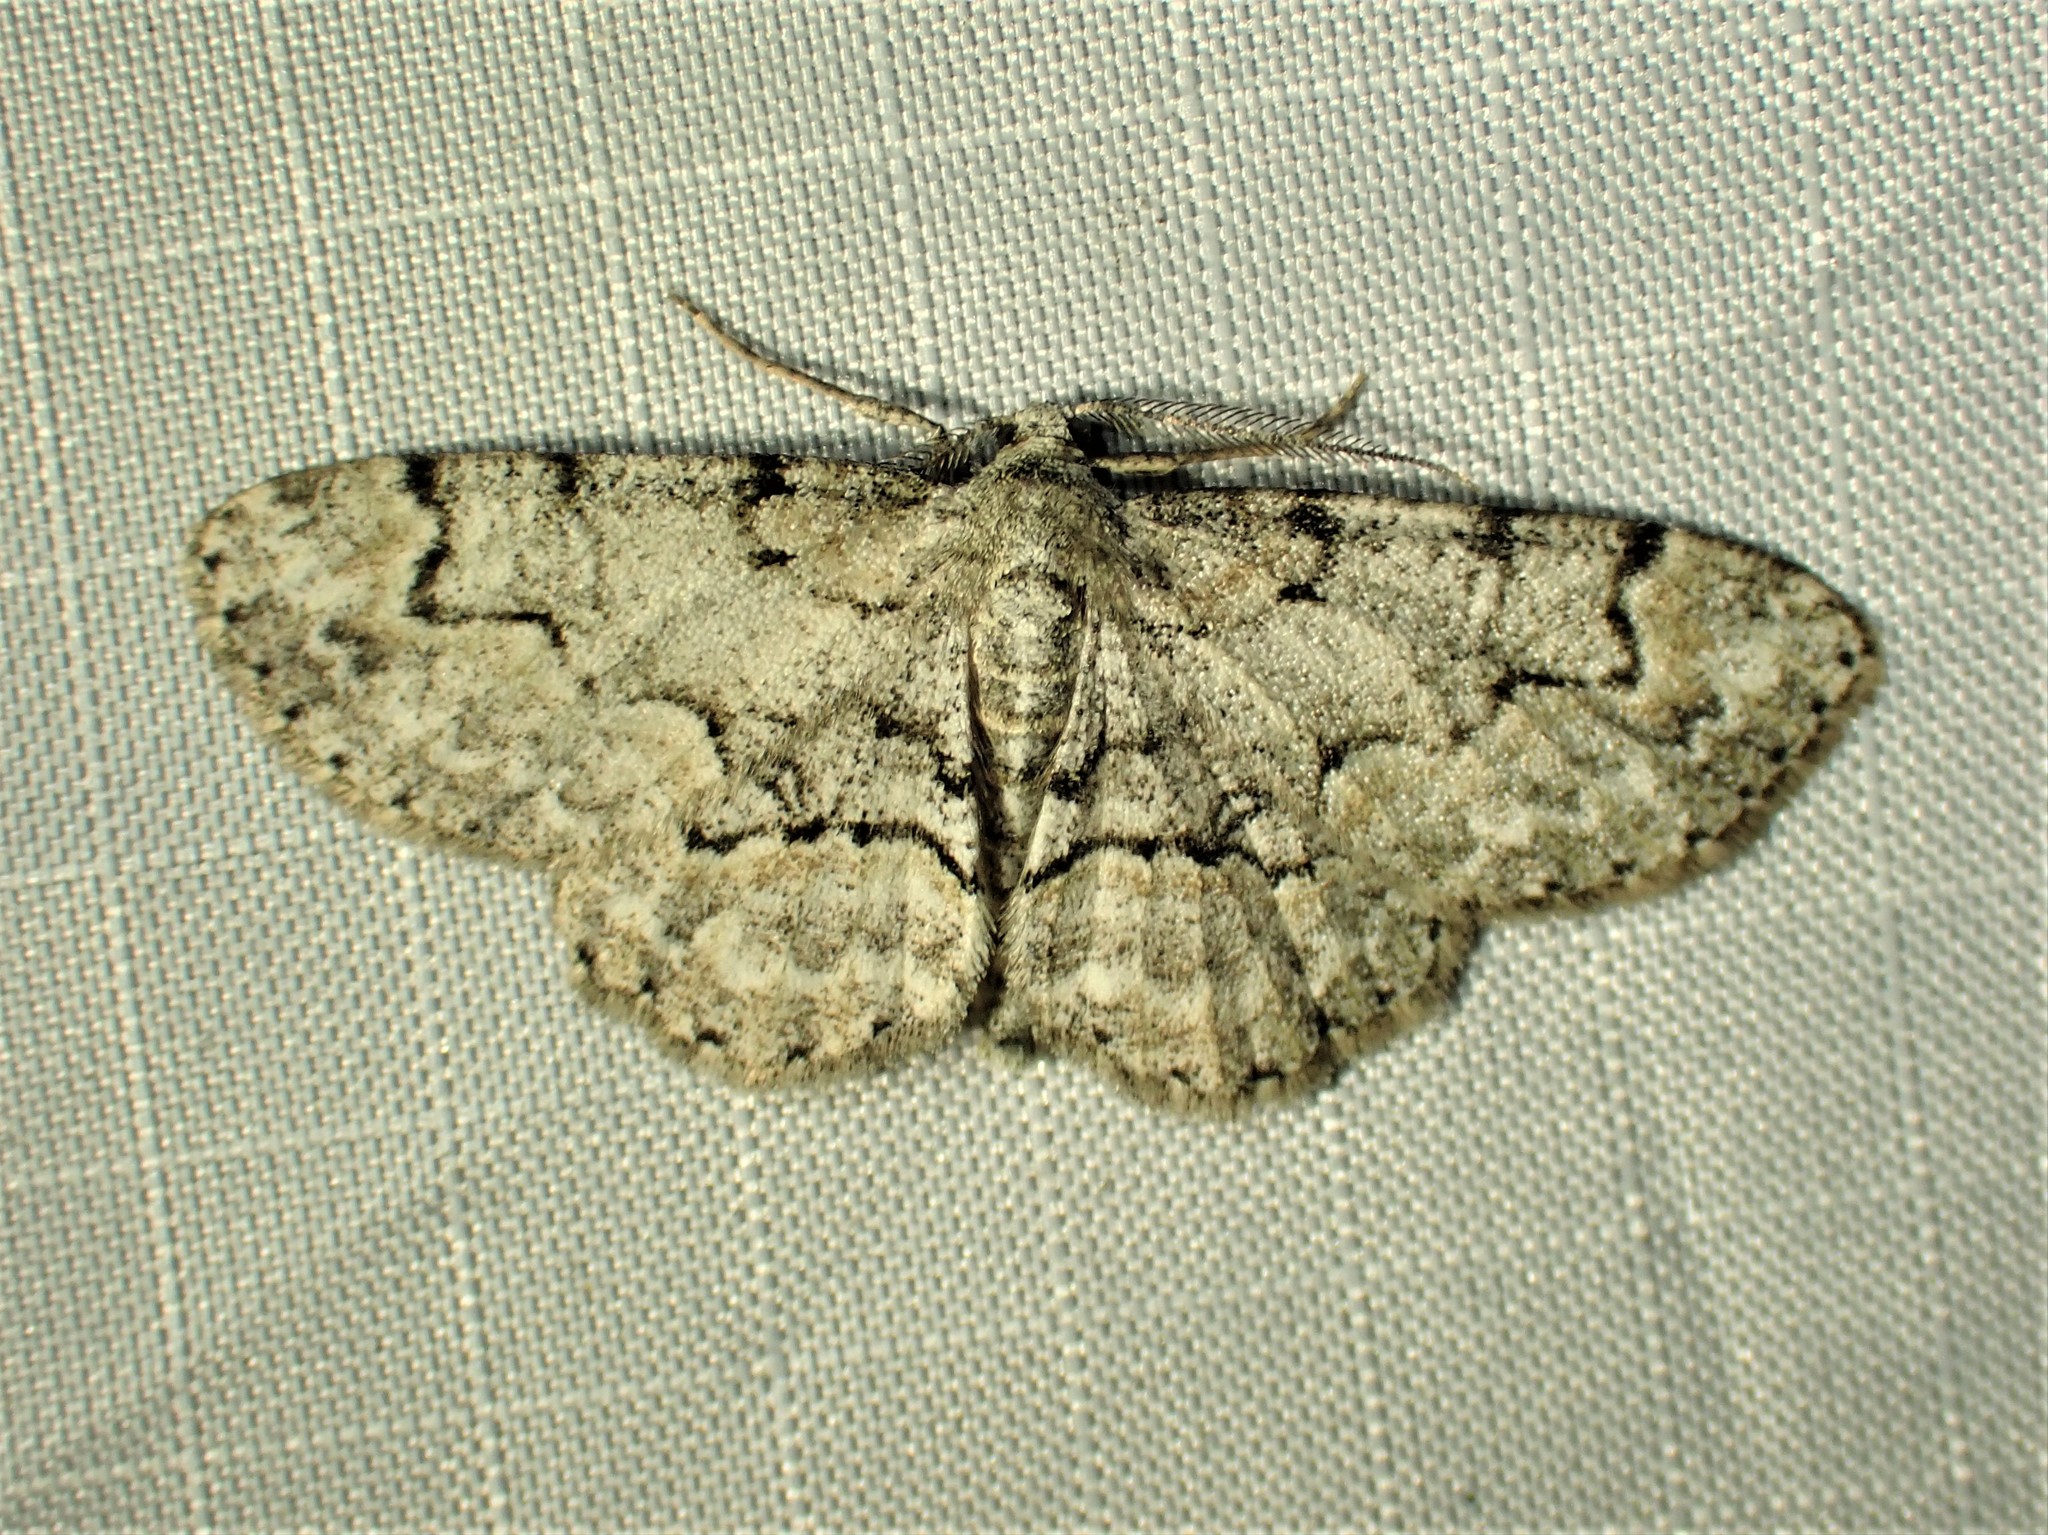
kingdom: Animalia
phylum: Arthropoda
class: Insecta
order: Lepidoptera
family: Geometridae
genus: Iridopsis
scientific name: Iridopsis ephyraria
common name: Pale-winged gray
